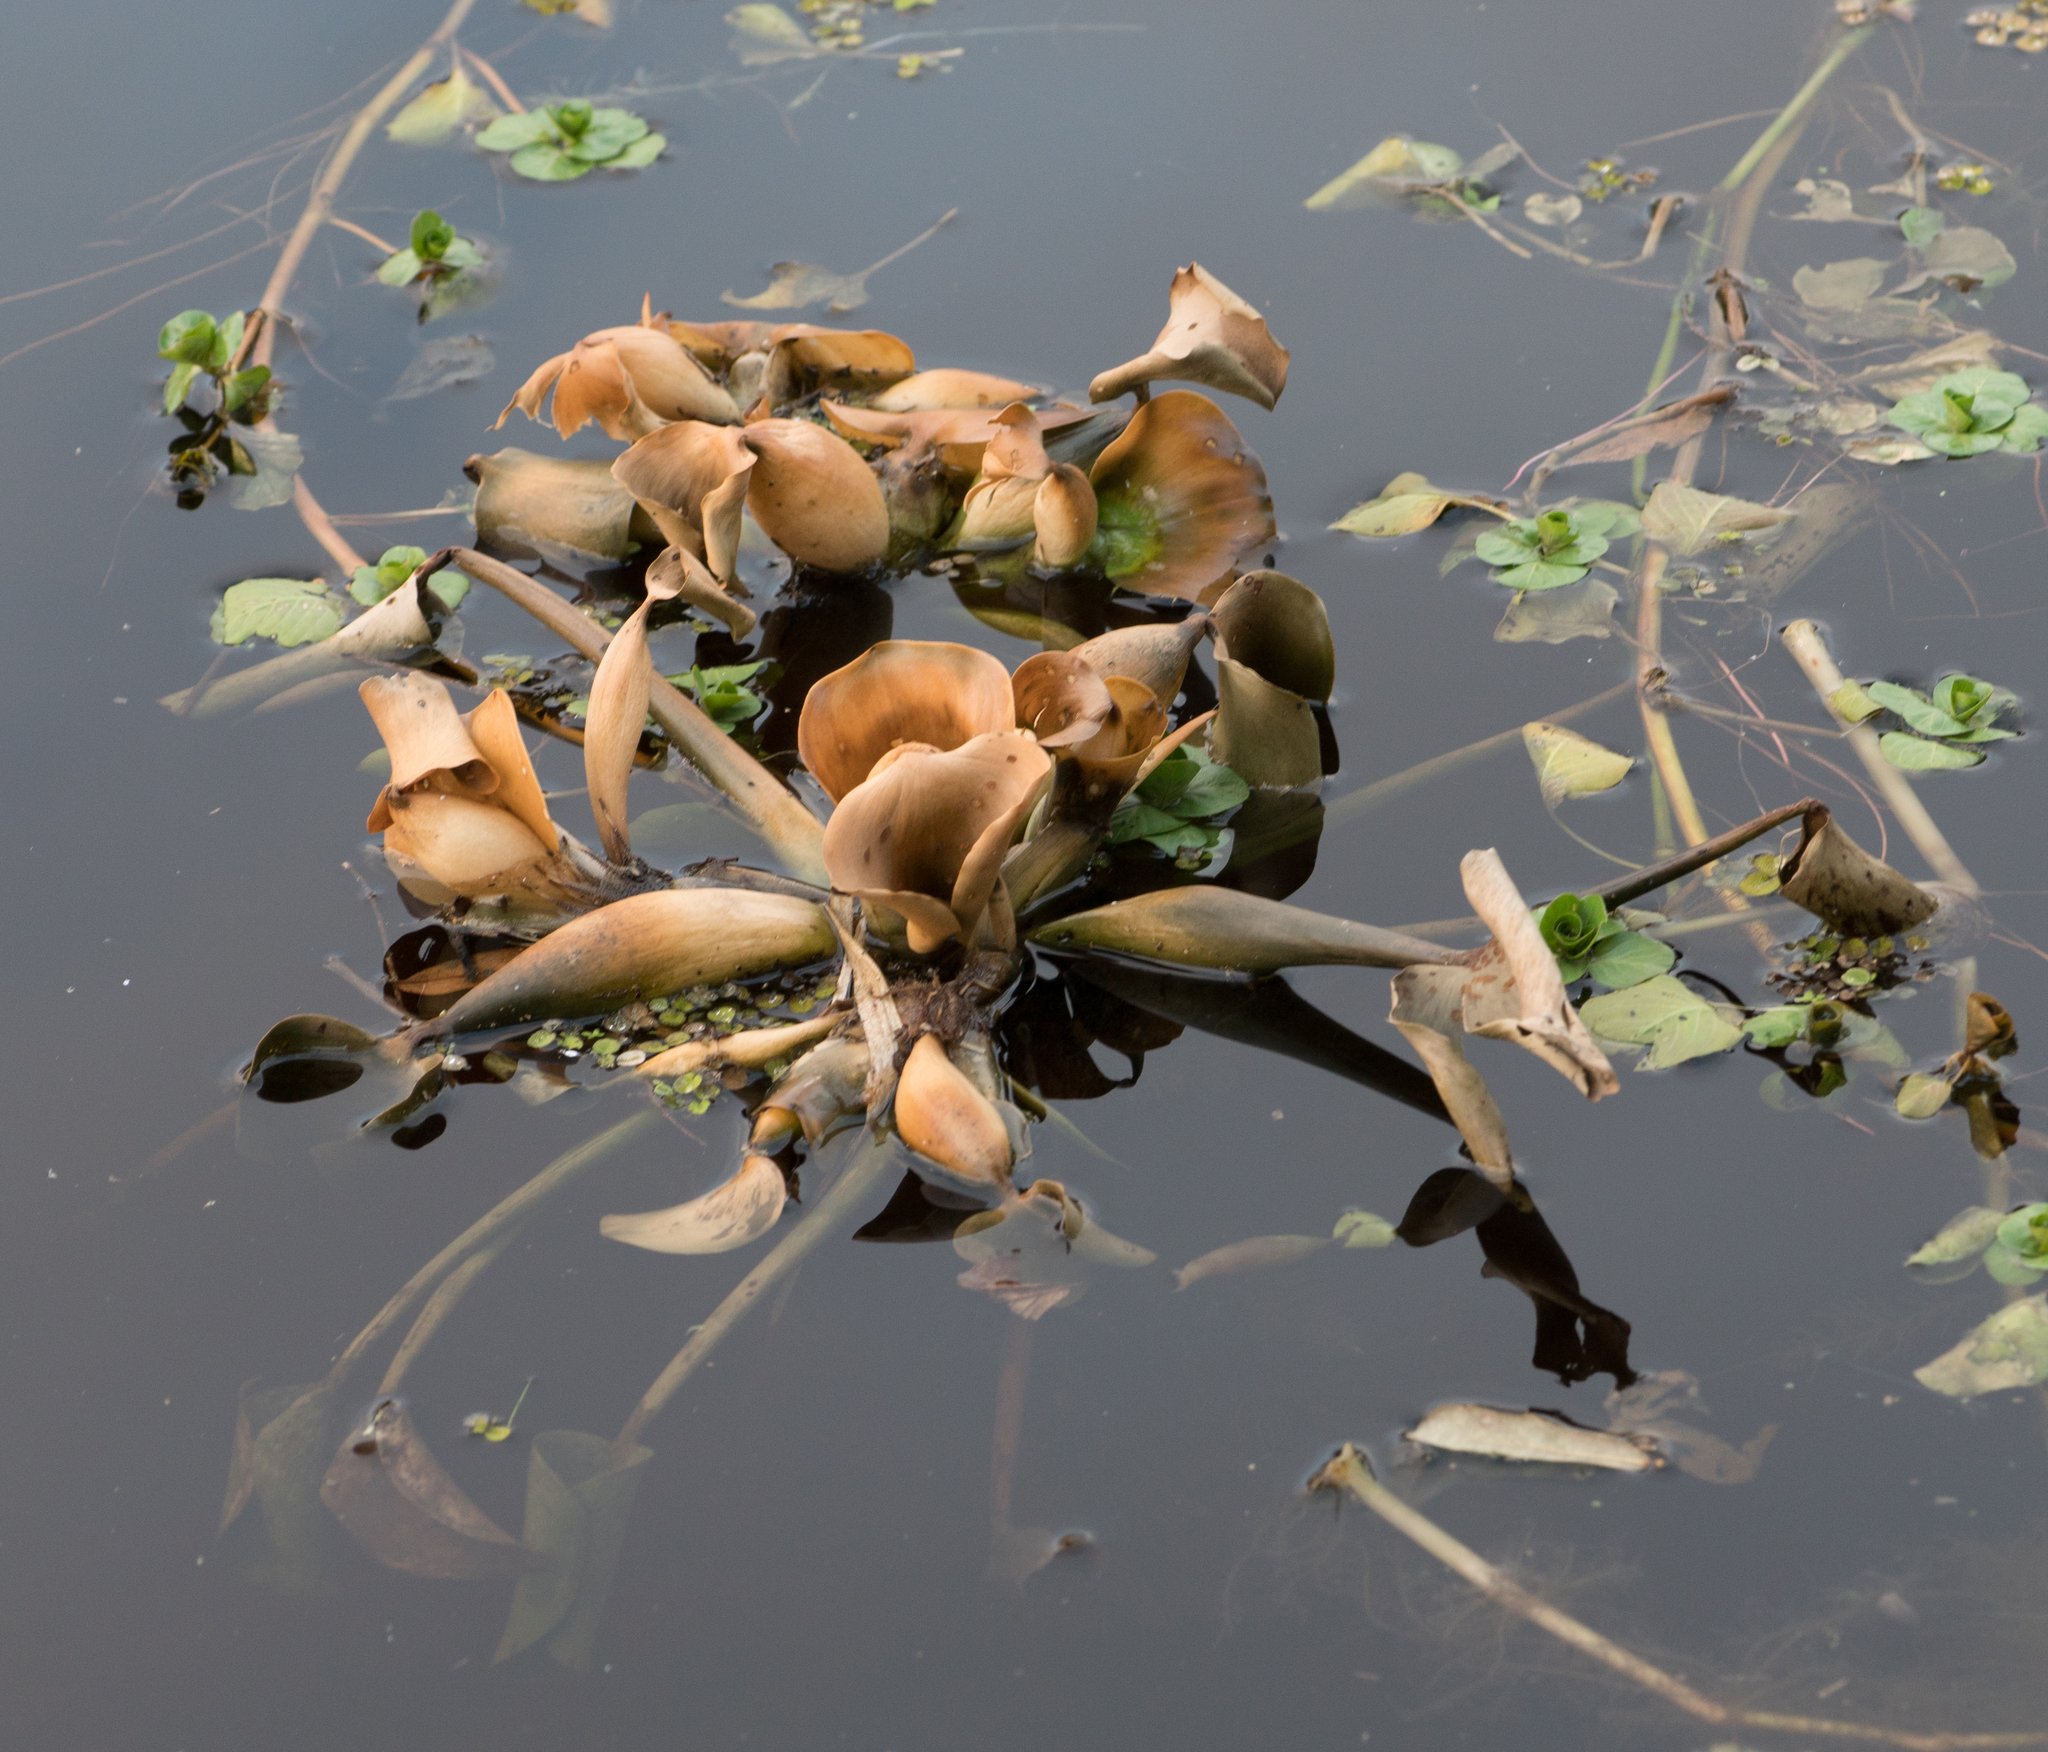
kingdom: Plantae
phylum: Tracheophyta
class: Liliopsida
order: Commelinales
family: Pontederiaceae
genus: Pontederia
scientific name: Pontederia crassipes
